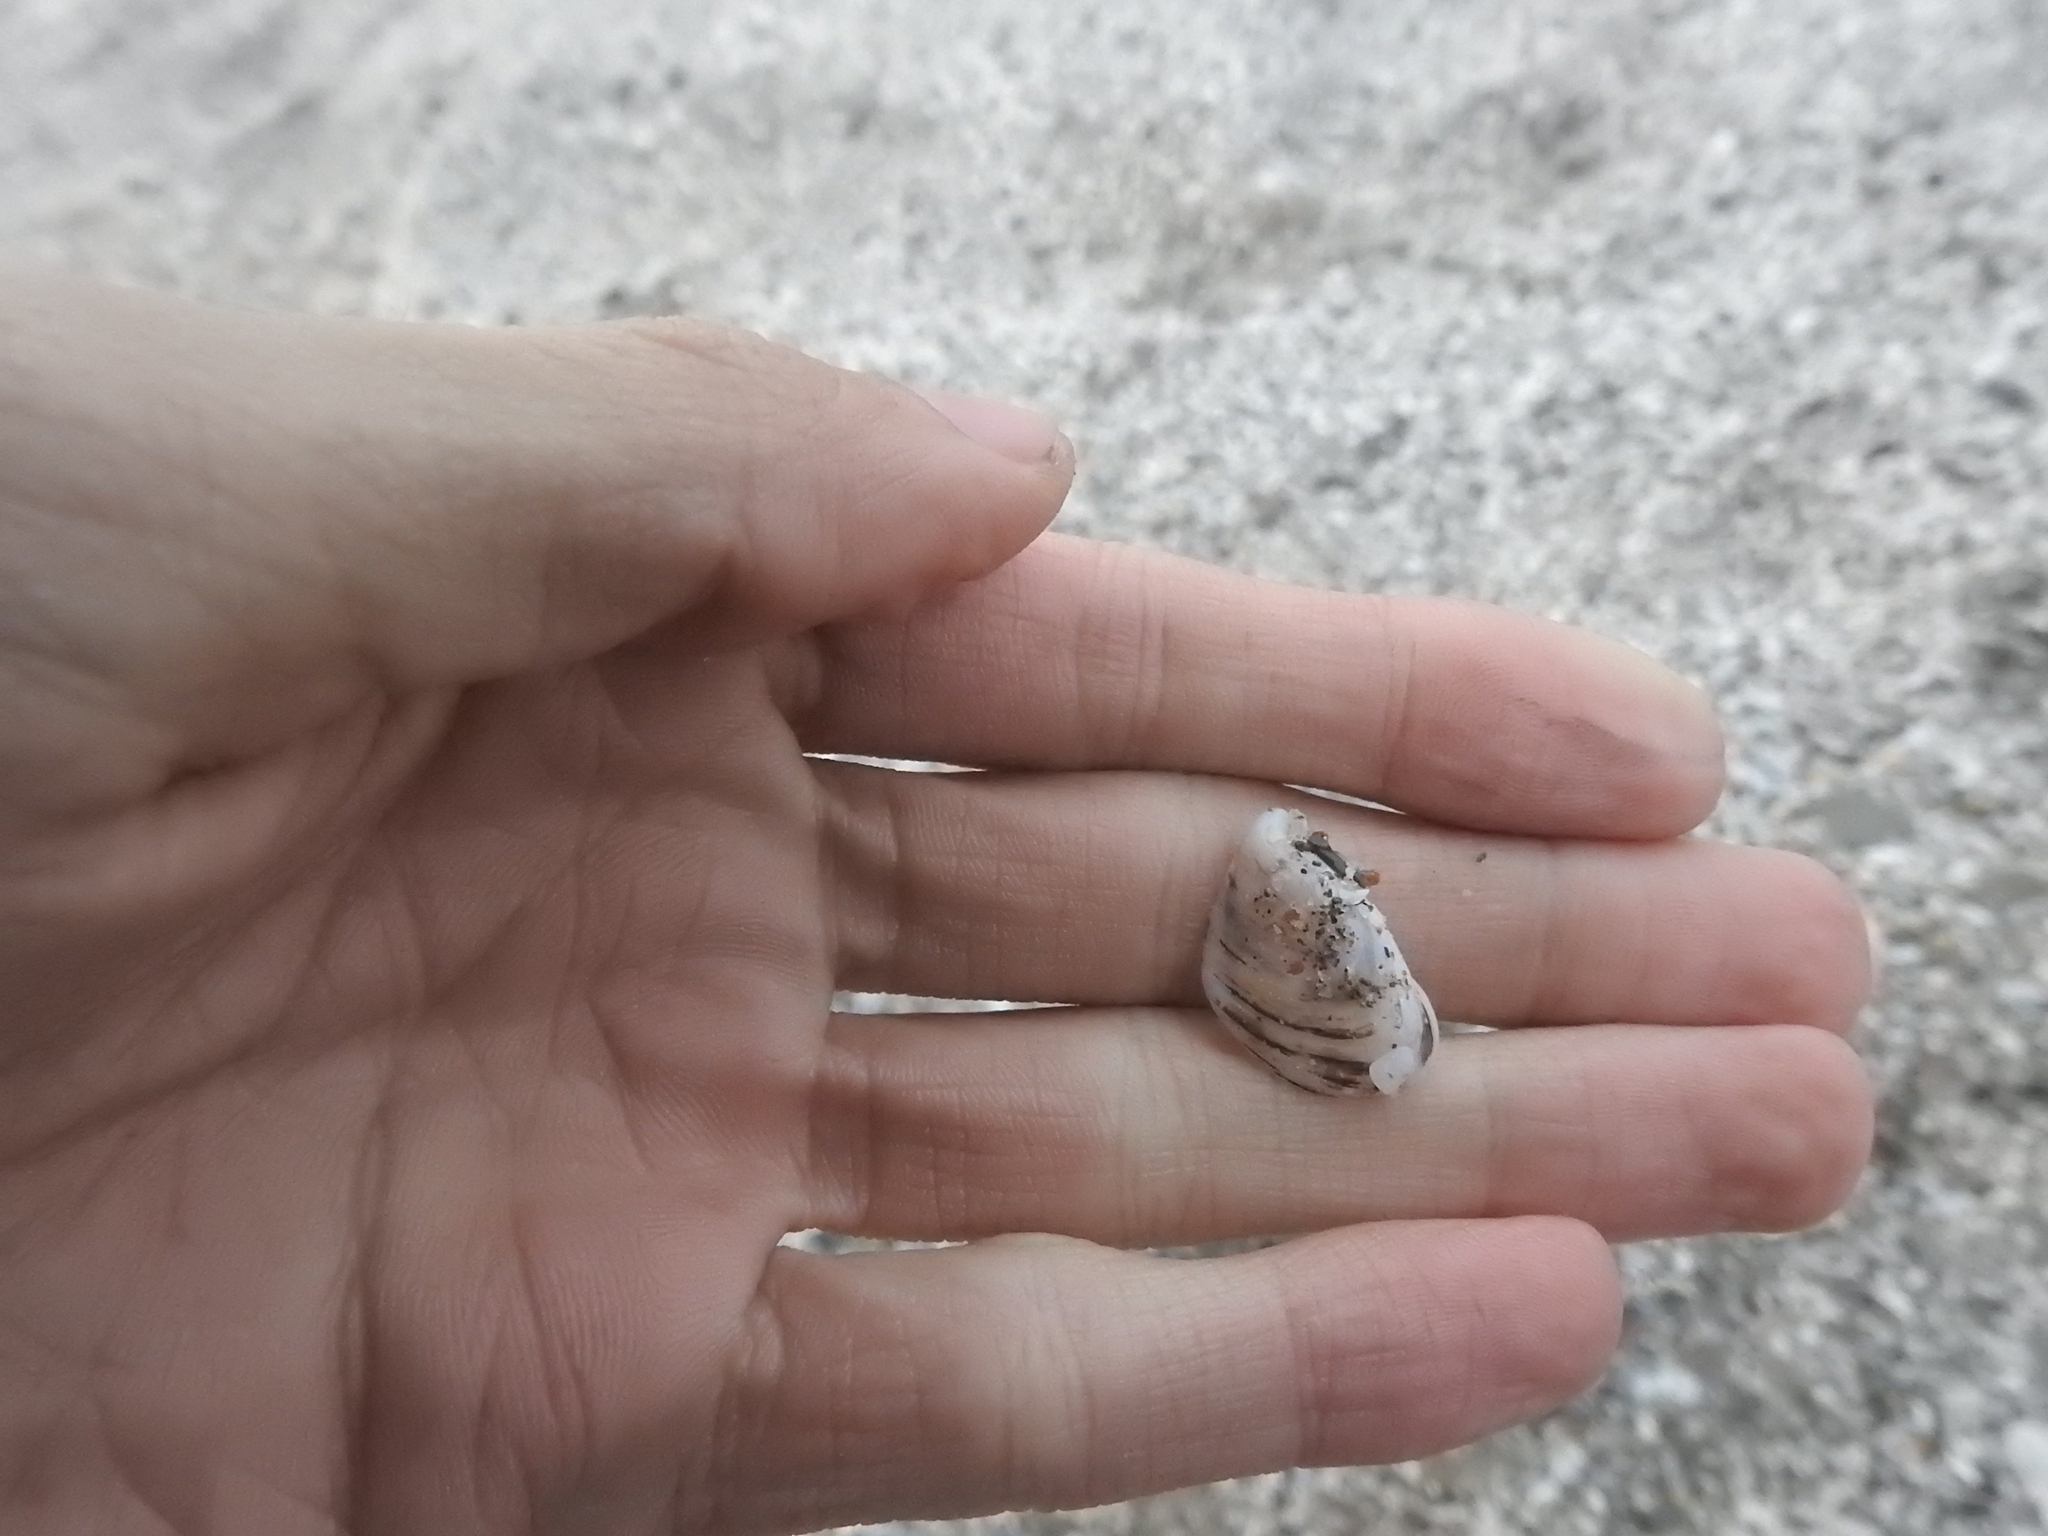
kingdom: Animalia
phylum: Mollusca
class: Bivalvia
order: Myida
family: Dreissenidae
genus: Dreissena
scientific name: Dreissena bugensis
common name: Quagga mussel
